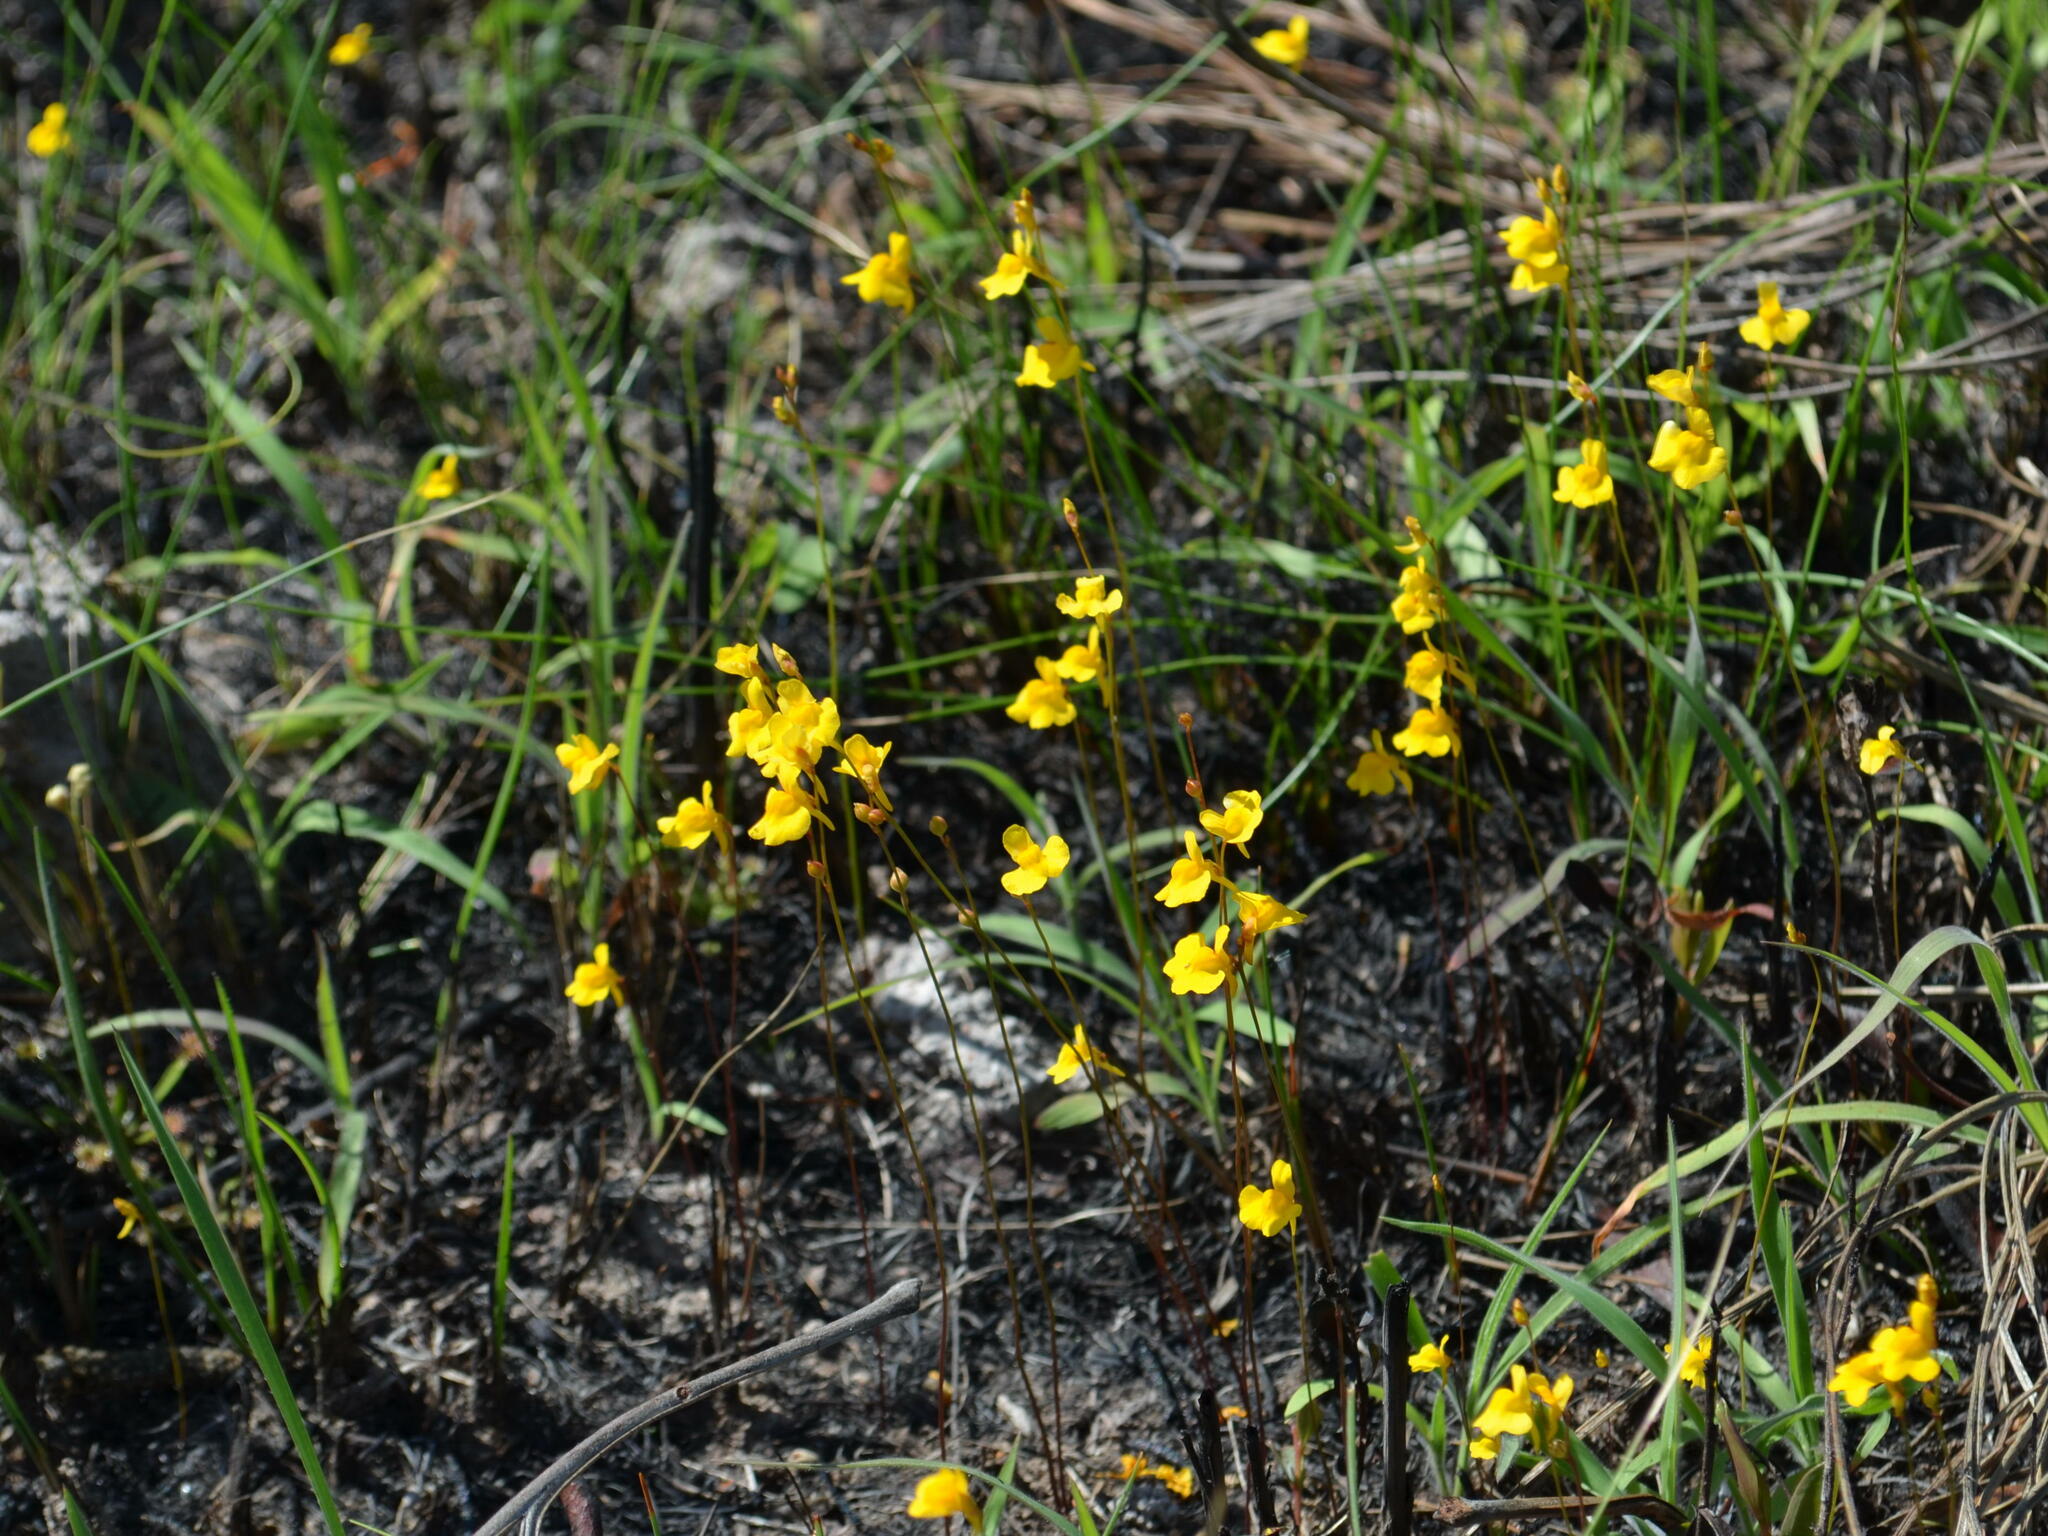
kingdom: Plantae
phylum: Tracheophyta
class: Magnoliopsida
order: Lamiales
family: Lentibulariaceae
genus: Utricularia
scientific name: Utricularia chrysantha
